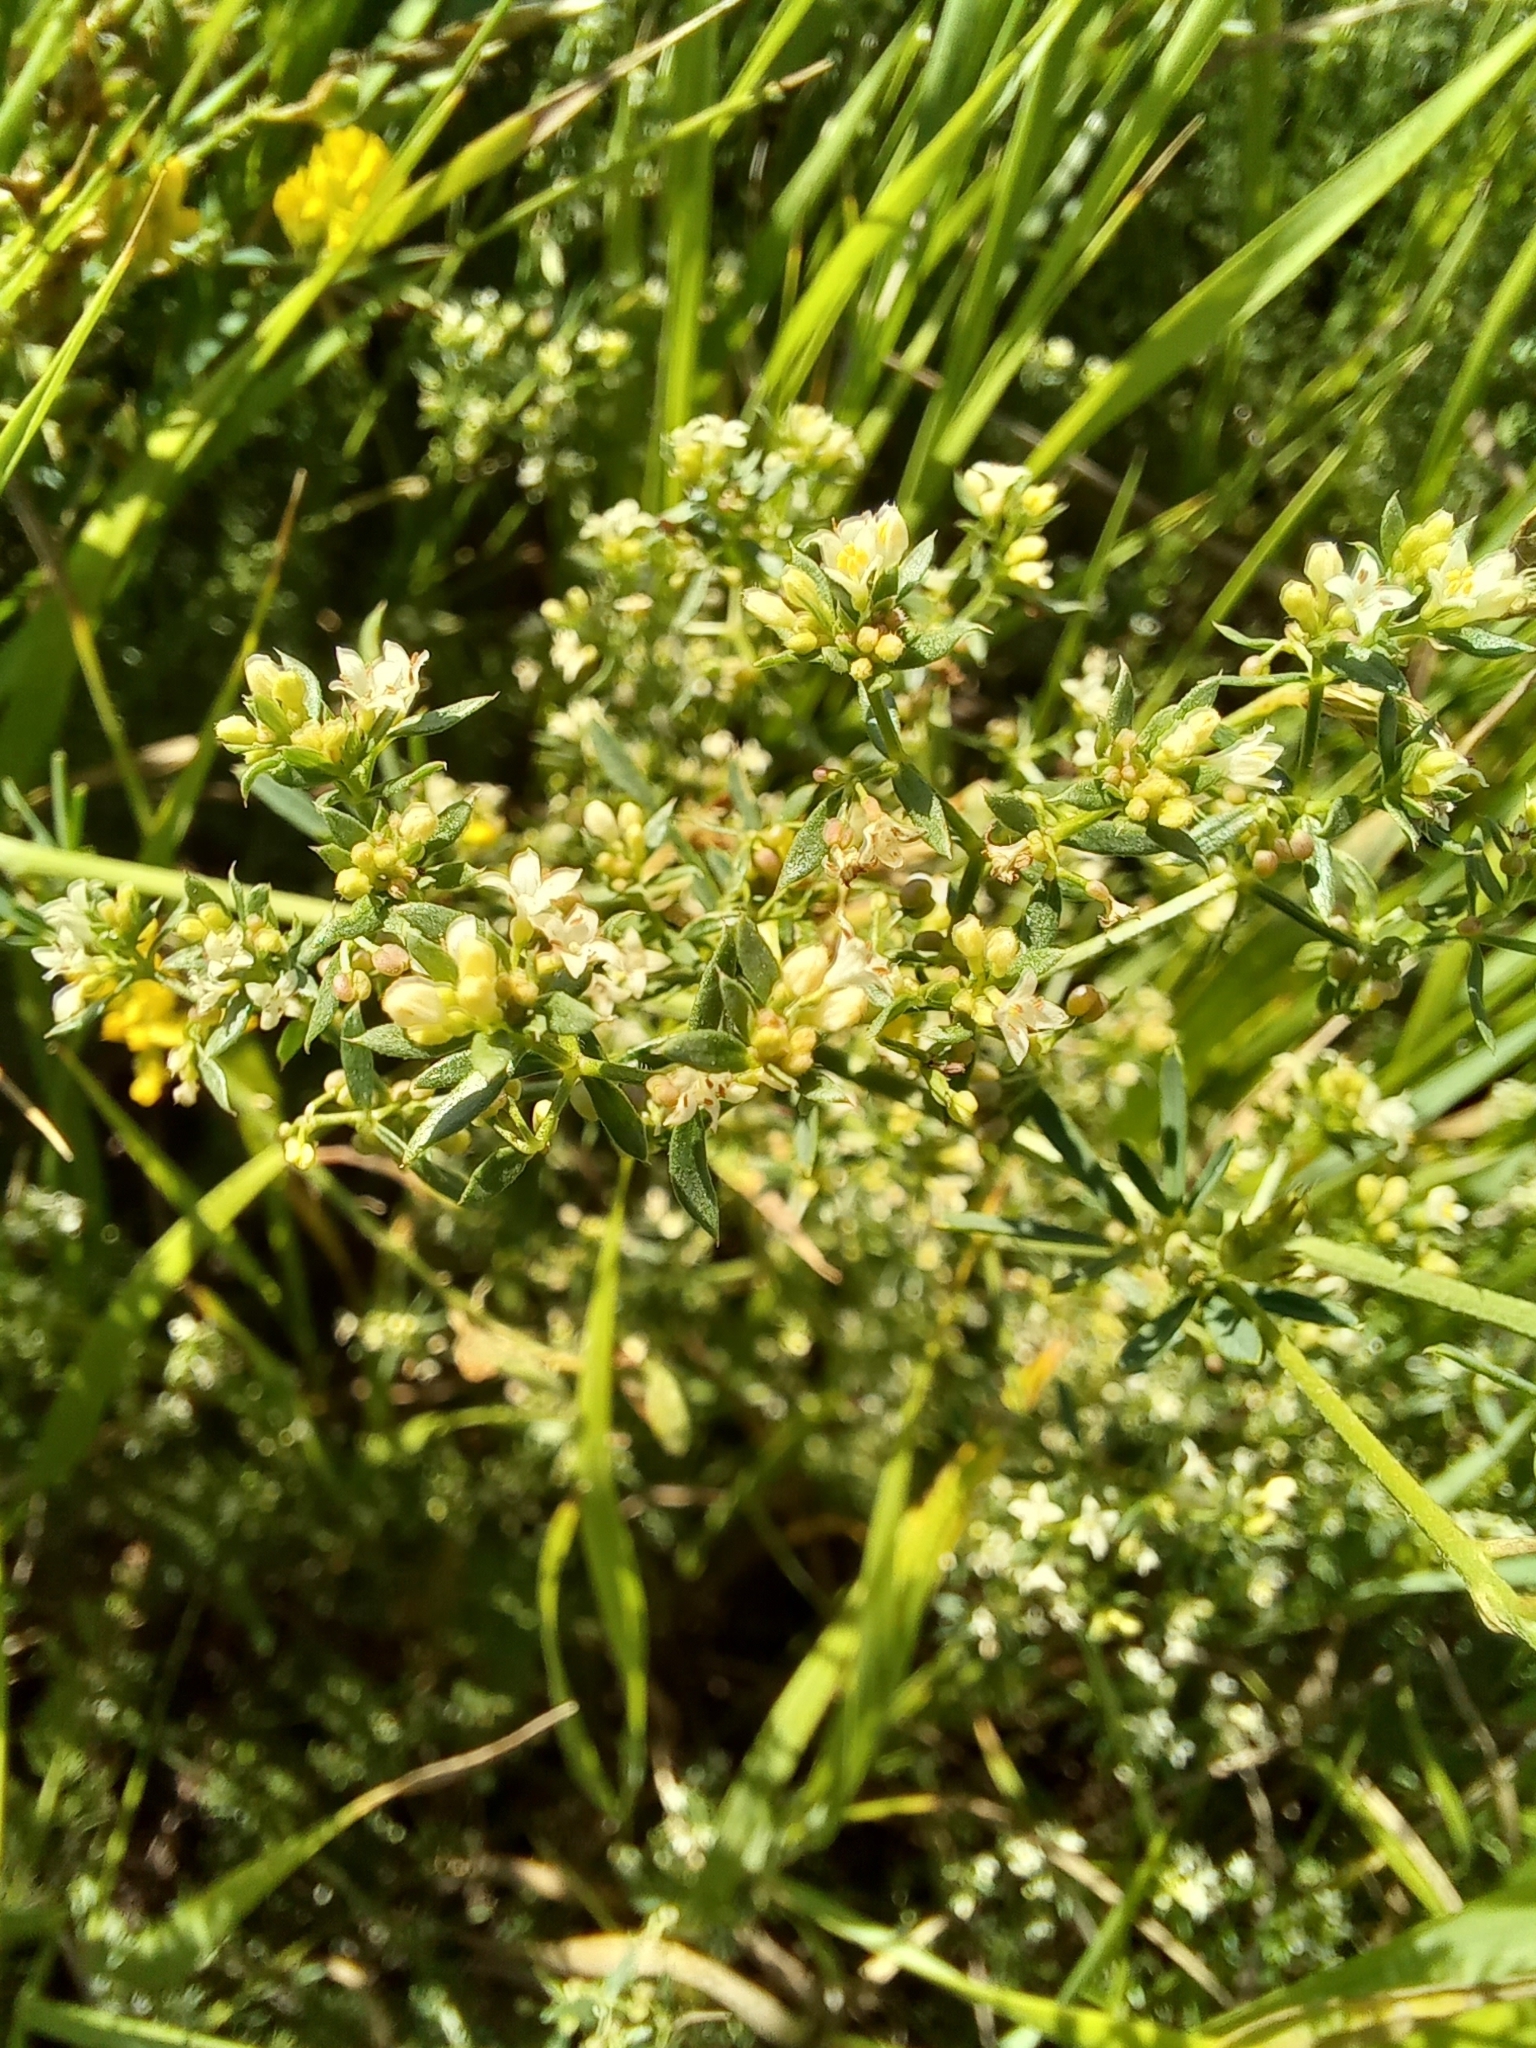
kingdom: Plantae
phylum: Tracheophyta
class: Magnoliopsida
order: Gentianales
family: Rubiaceae
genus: Galium
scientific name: Galium humifusum
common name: Spreading bedstraw
